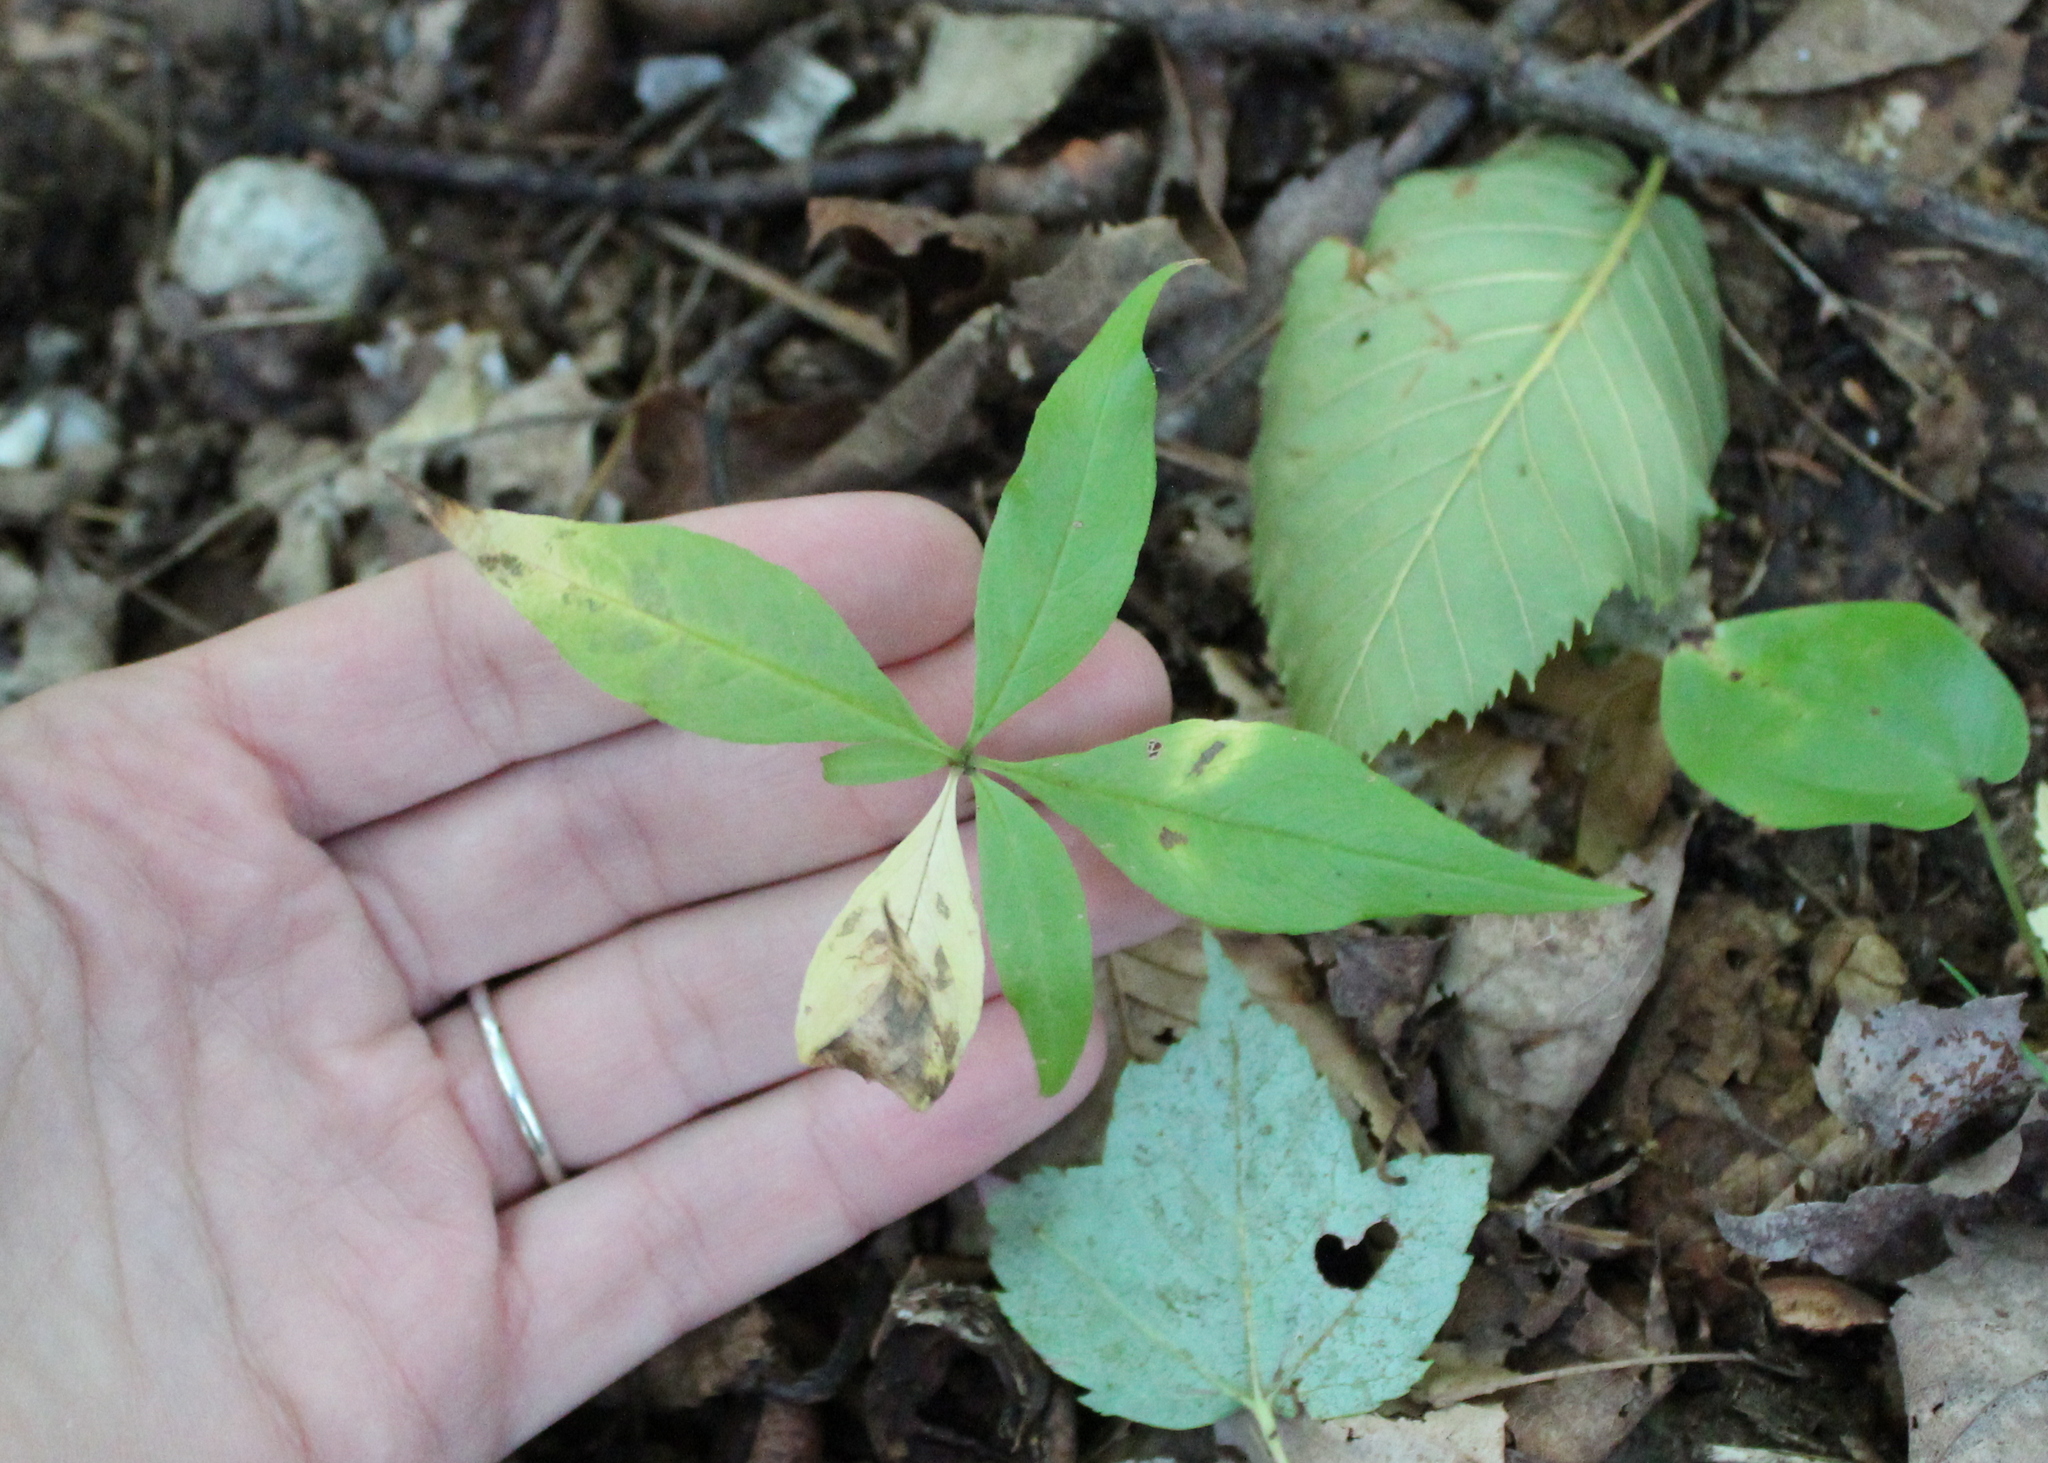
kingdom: Plantae
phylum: Tracheophyta
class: Magnoliopsida
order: Ericales
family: Primulaceae
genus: Lysimachia
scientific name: Lysimachia borealis
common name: American starflower
